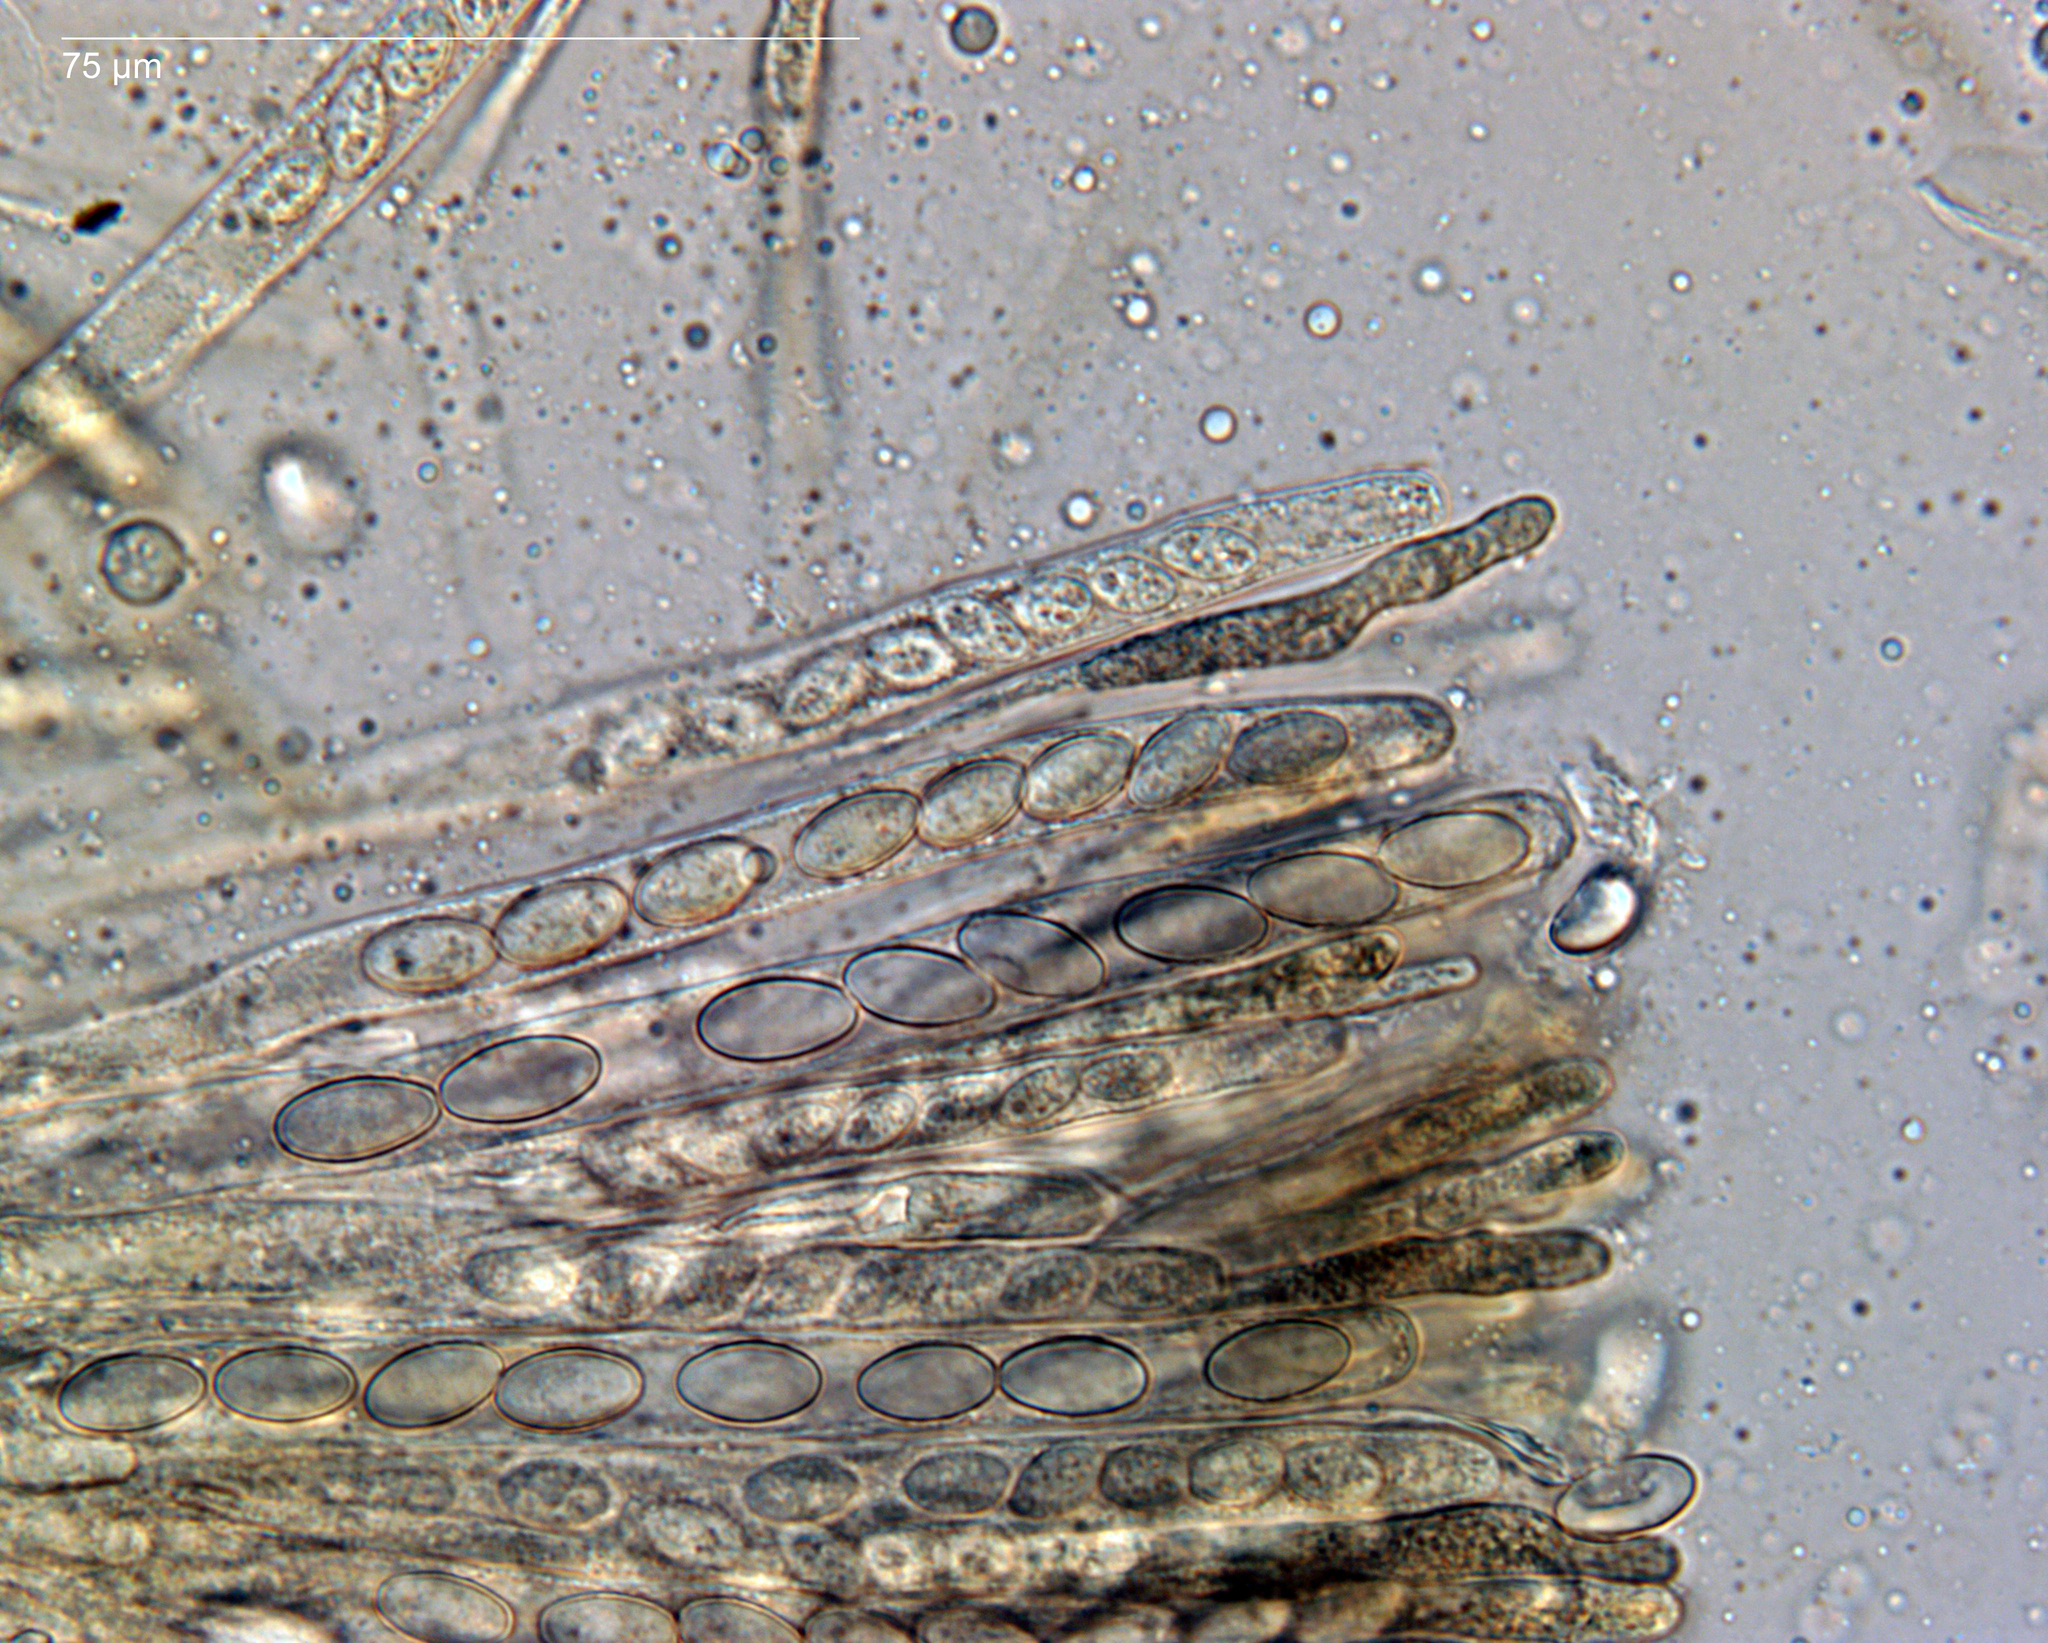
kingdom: Fungi
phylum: Ascomycota
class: Pezizomycetes
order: Pezizales
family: Pyronemataceae
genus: Pyronema
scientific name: Pyronema omphalodes
